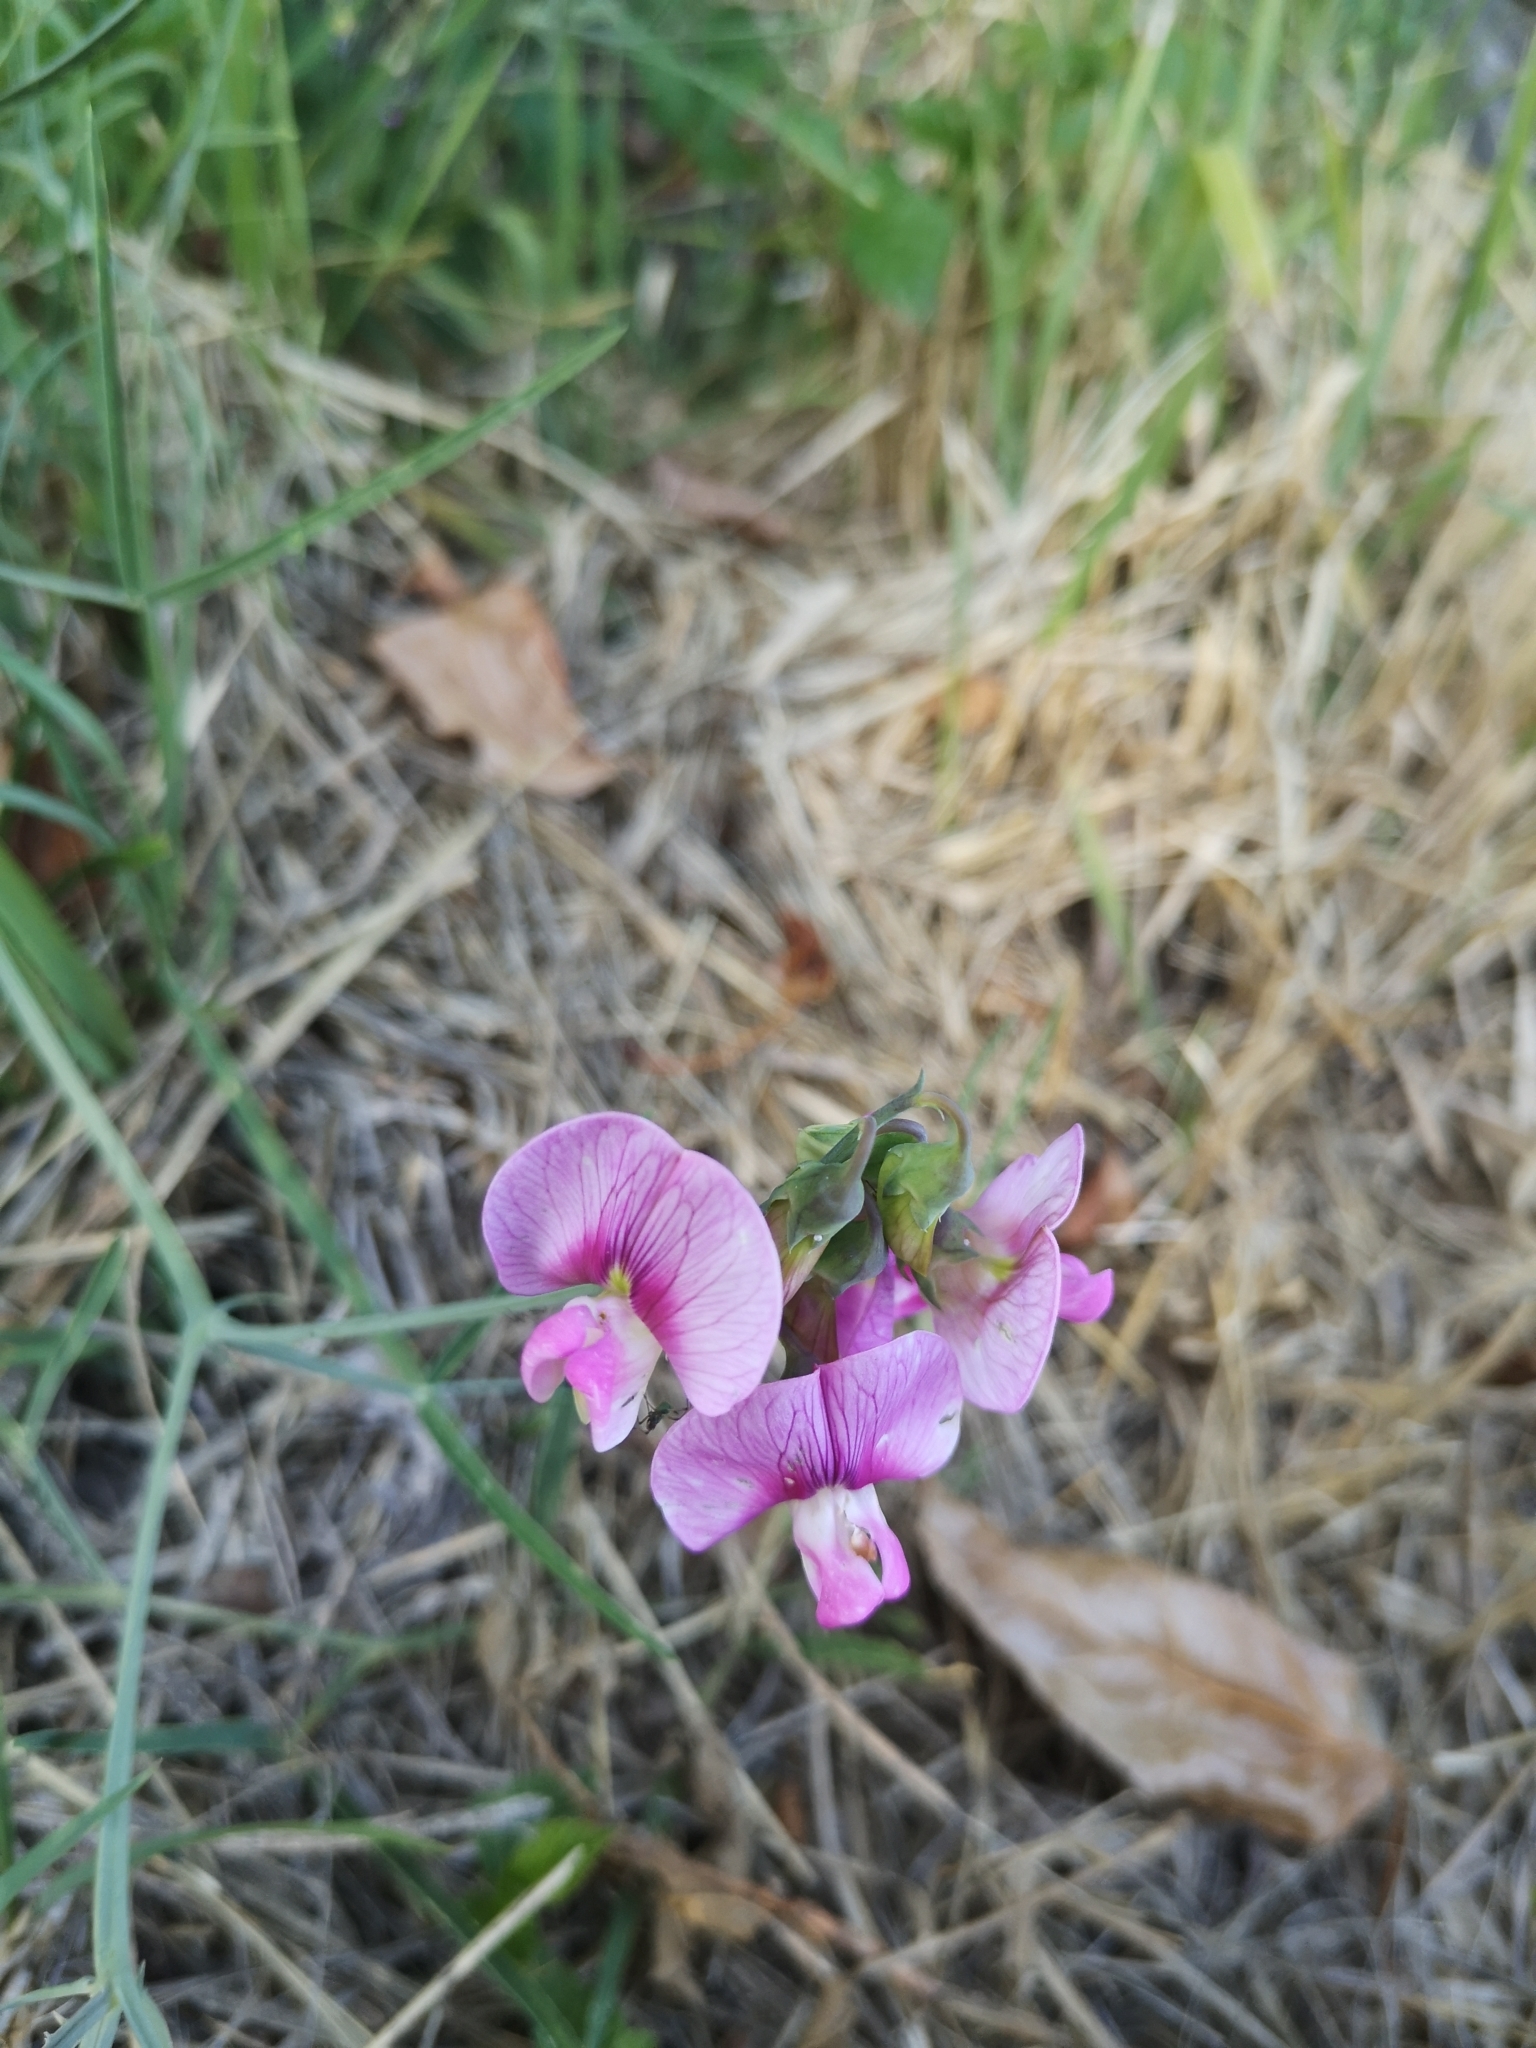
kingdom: Plantae
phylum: Tracheophyta
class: Magnoliopsida
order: Fabales
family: Fabaceae
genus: Lathyrus
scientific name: Lathyrus latifolius
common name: Perennial pea
